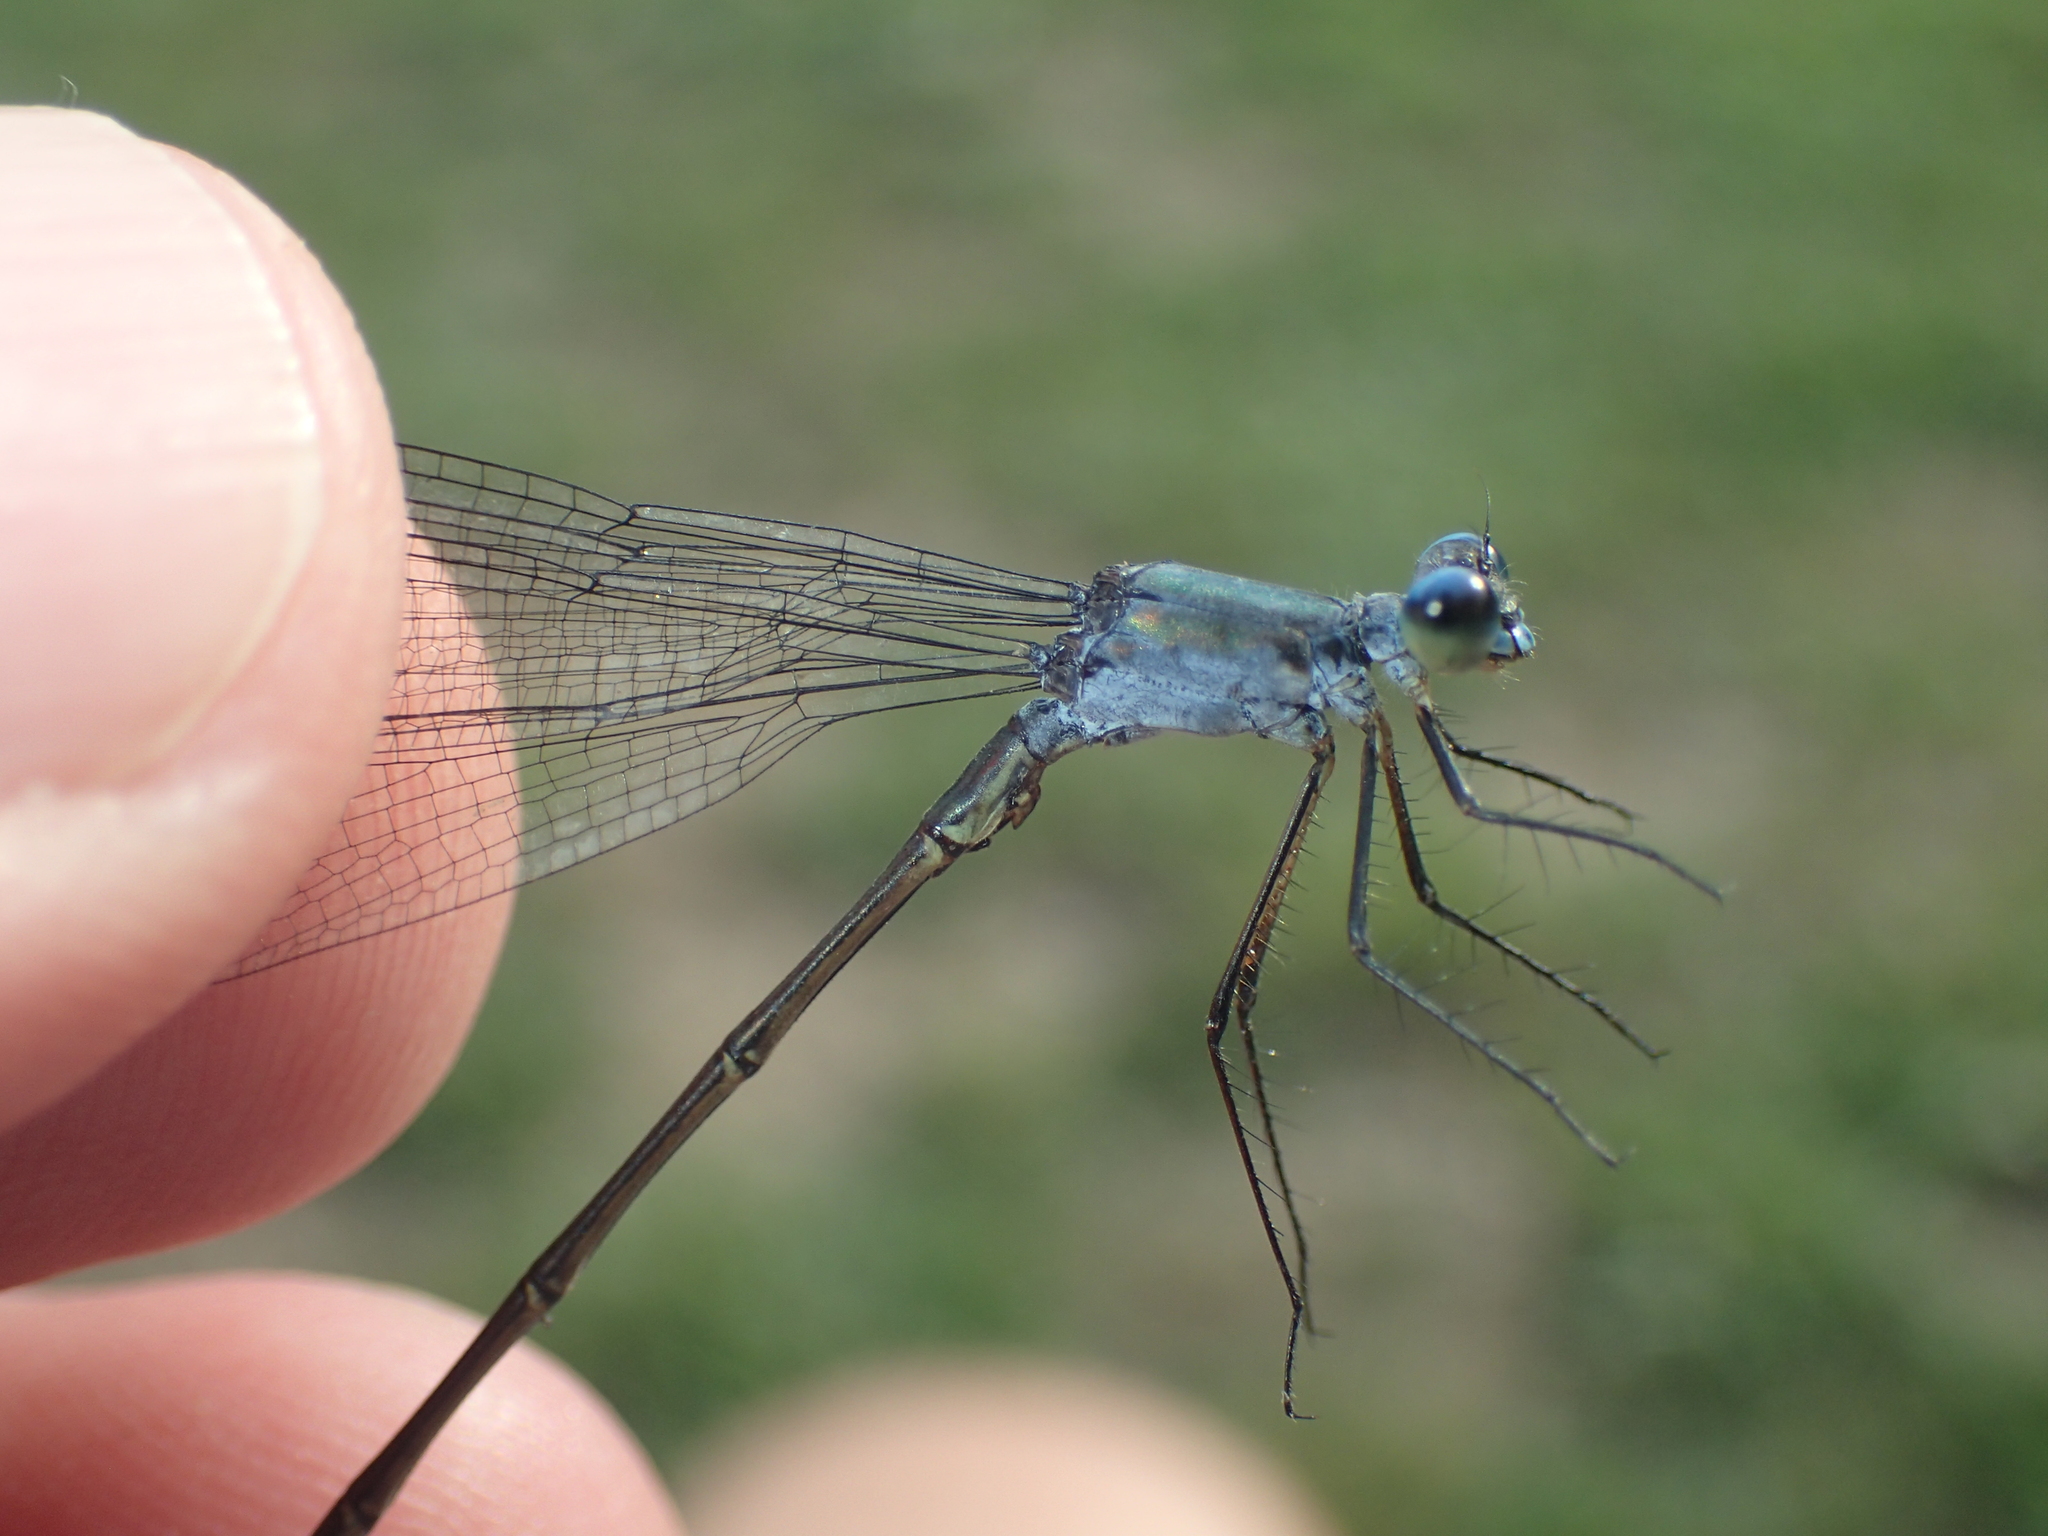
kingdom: Animalia
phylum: Arthropoda
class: Insecta
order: Odonata
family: Lestidae
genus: Lestes
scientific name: Lestes vigilax
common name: Swamp spreadwing
